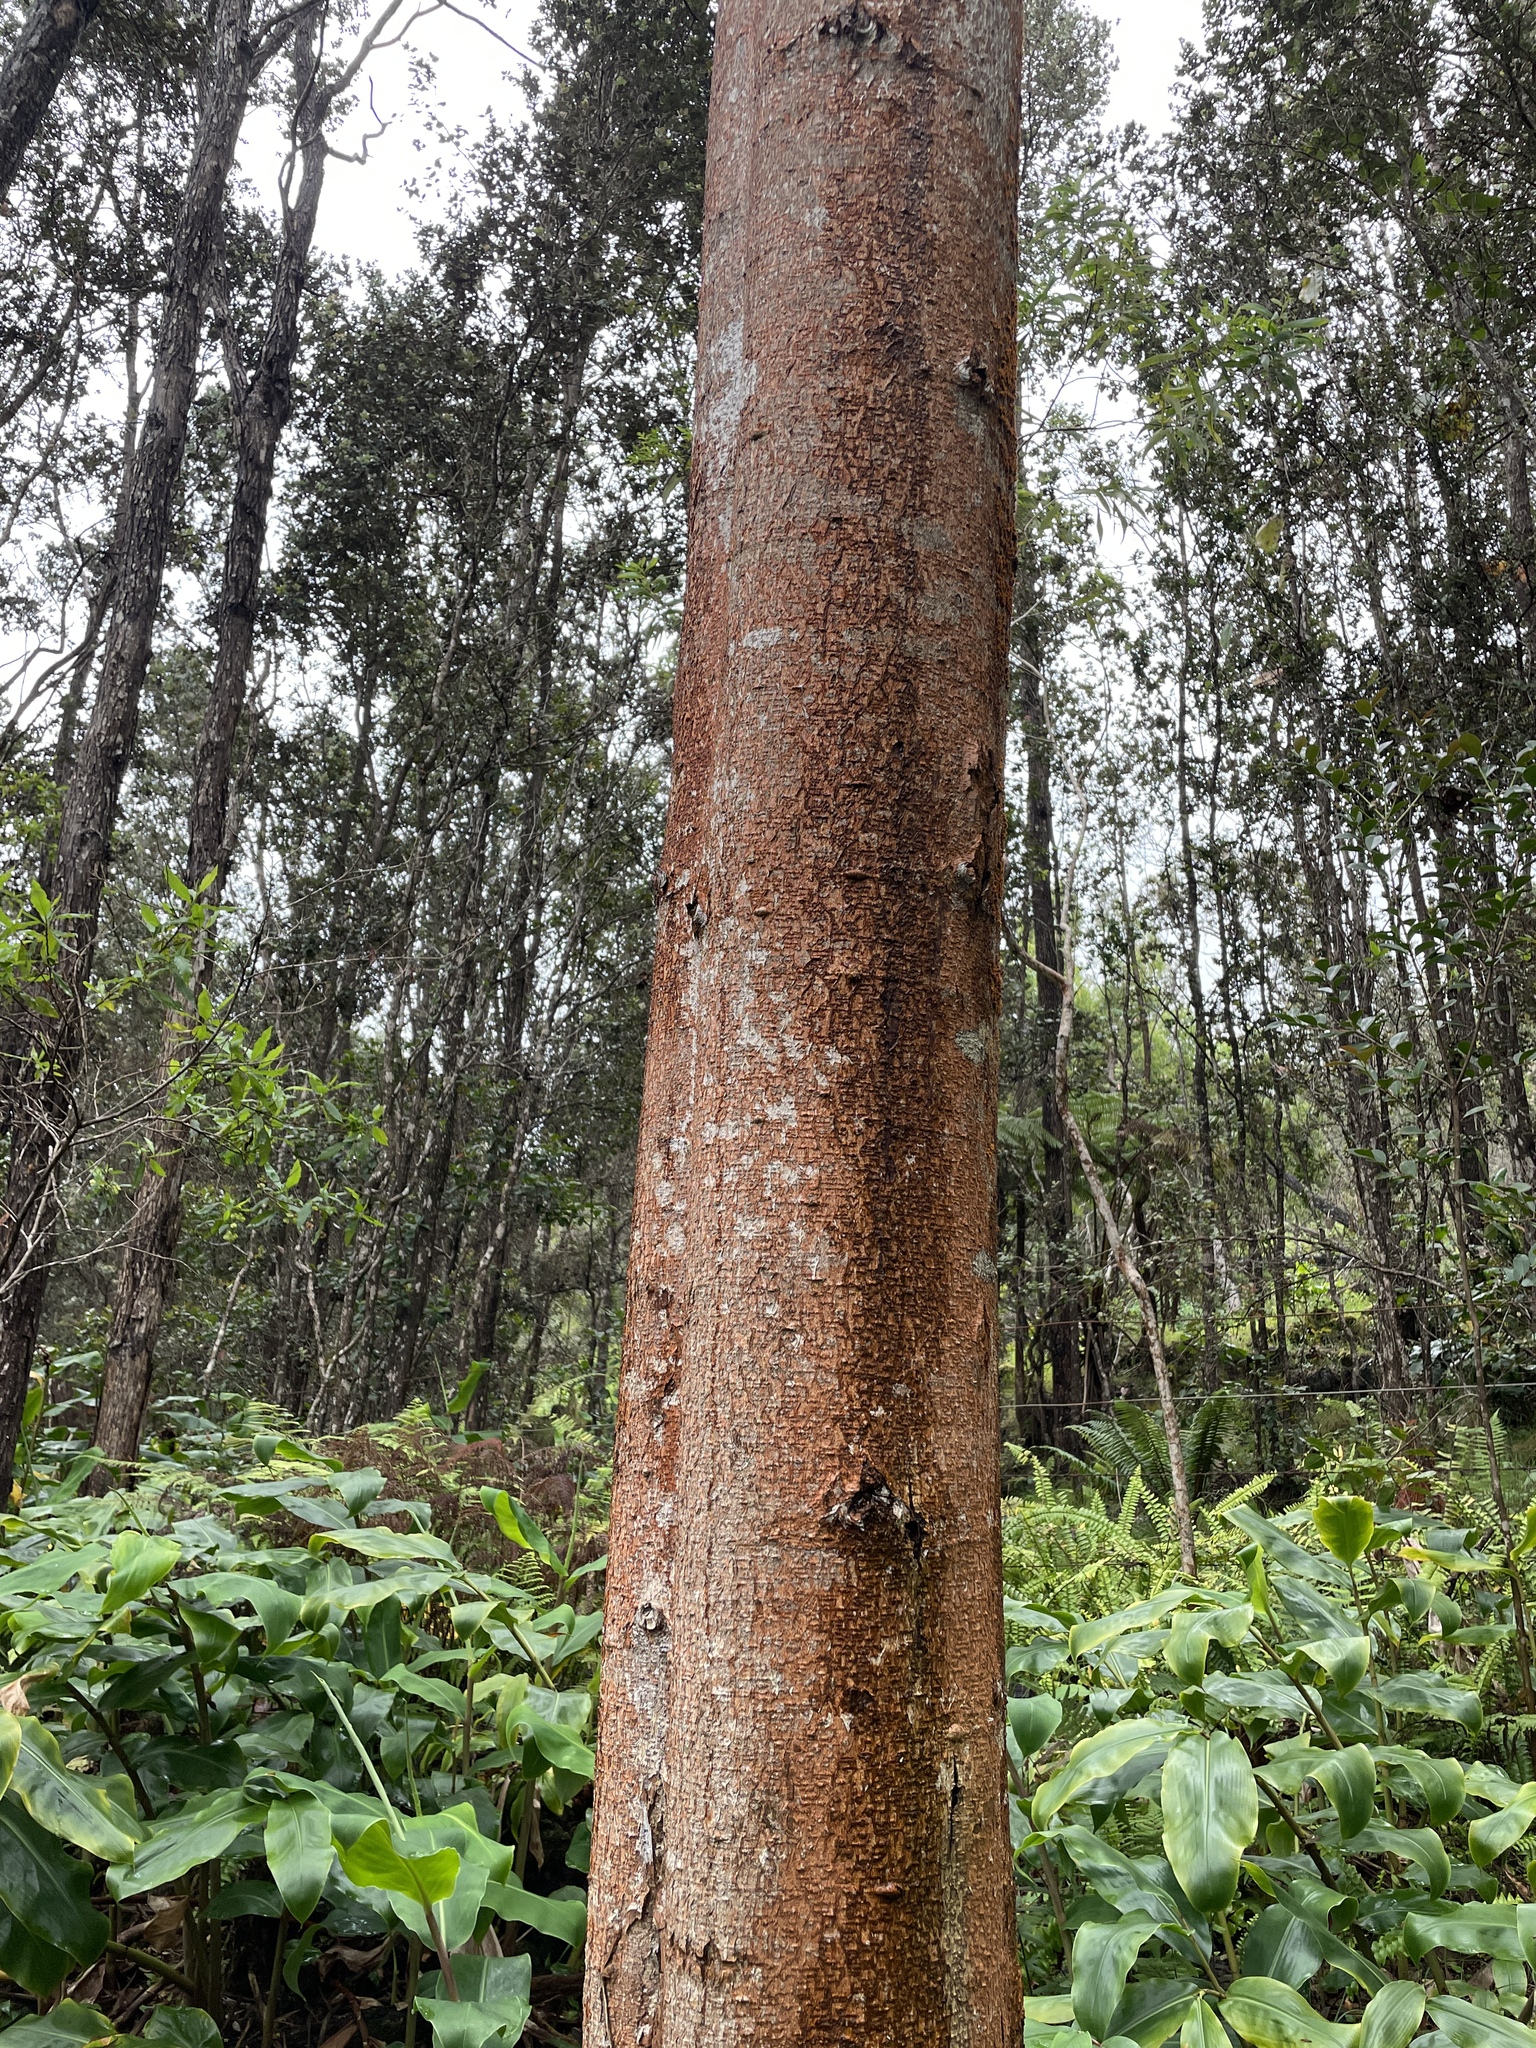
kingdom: Plantae
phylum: Tracheophyta
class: Magnoliopsida
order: Fabales
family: Fabaceae
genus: Acacia
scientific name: Acacia koa
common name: Gray koa
